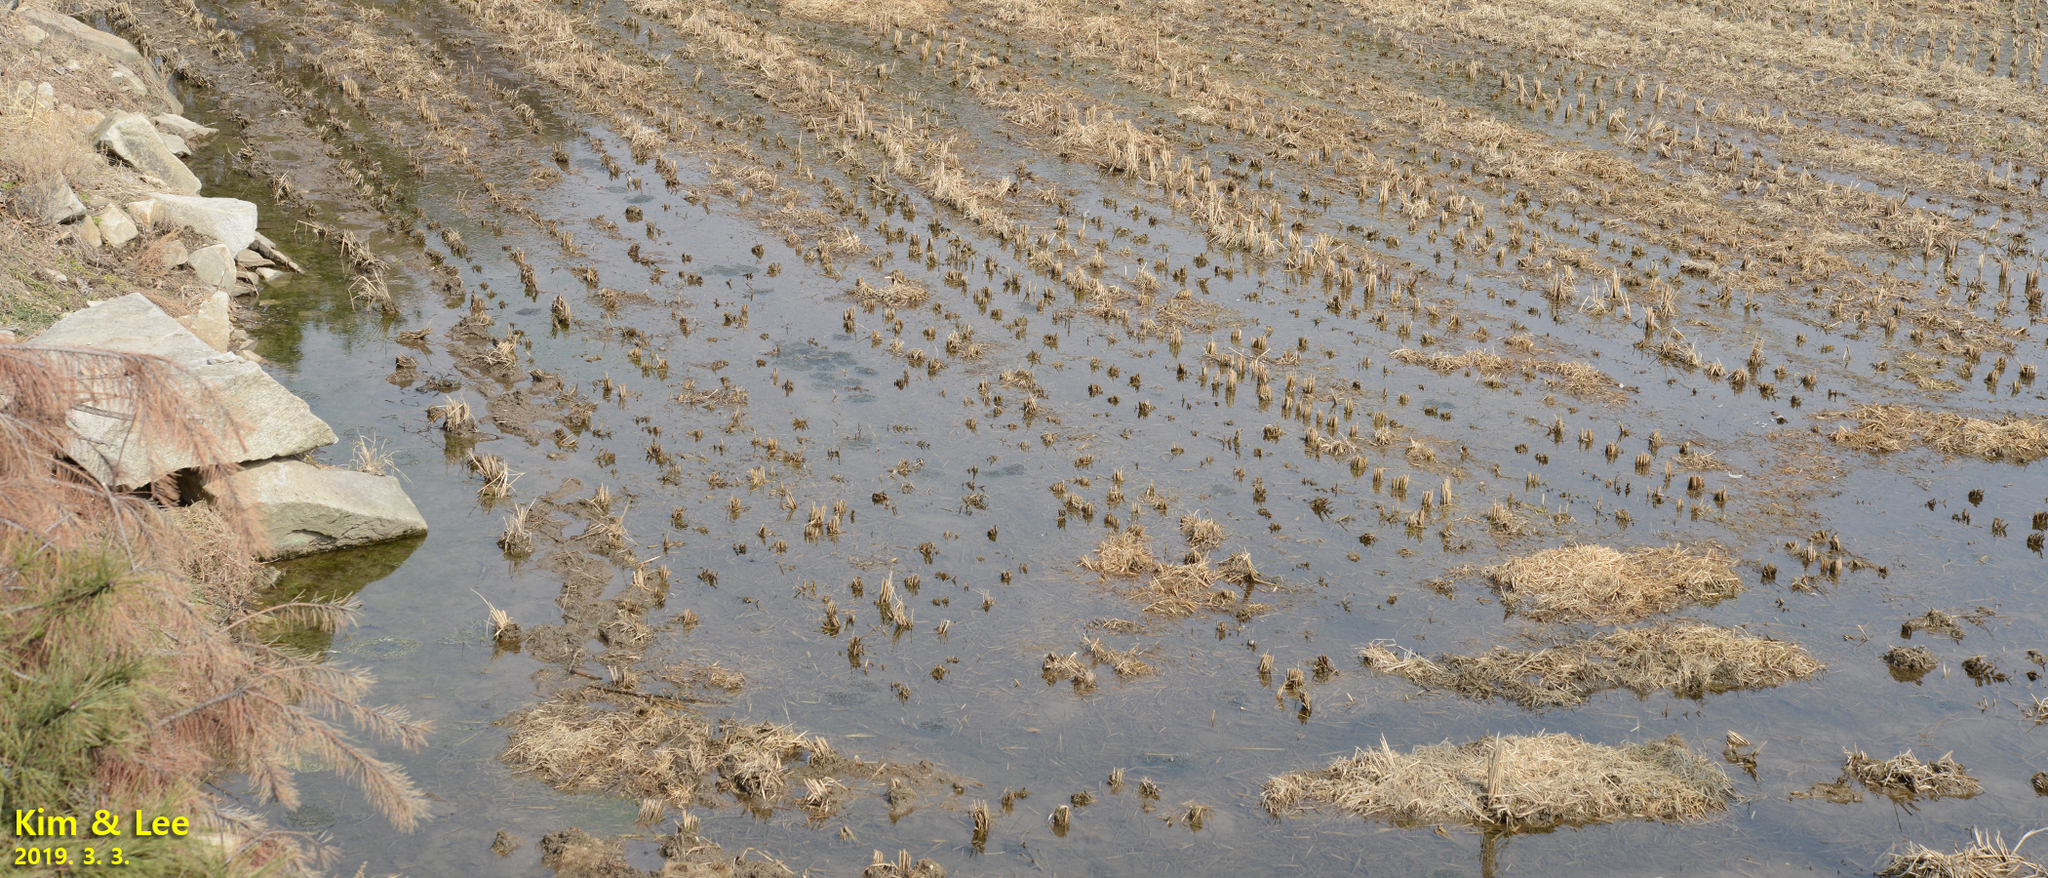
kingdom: Animalia
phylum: Chordata
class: Amphibia
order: Anura
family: Ranidae
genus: Rana
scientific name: Rana uenoi
